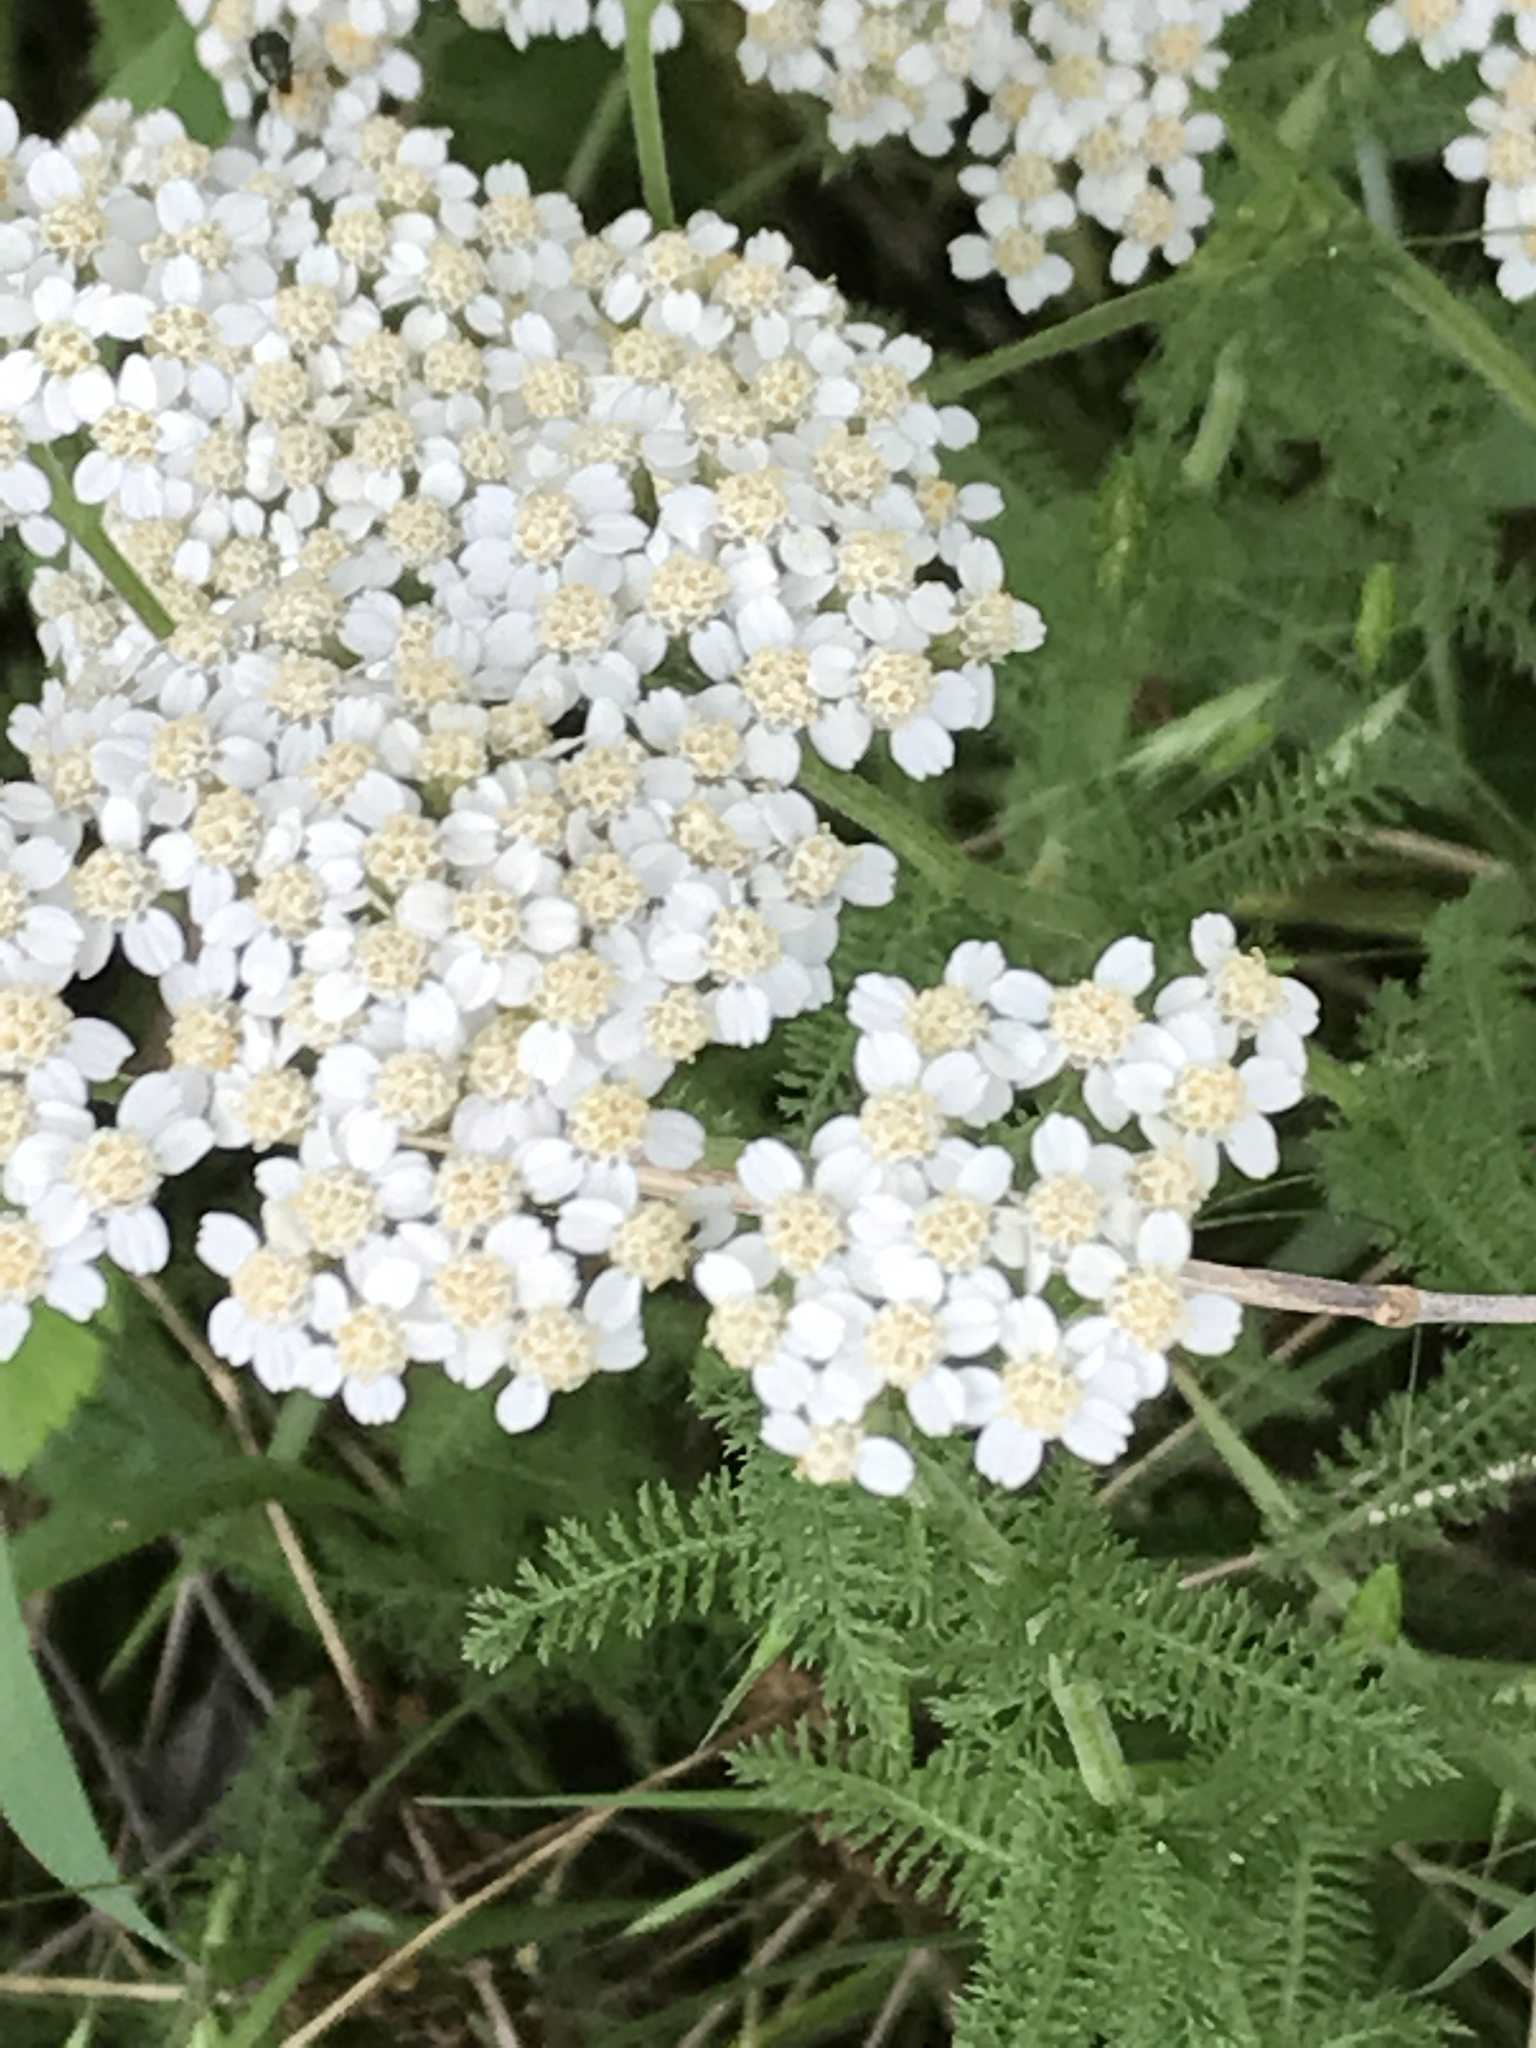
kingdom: Plantae
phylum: Tracheophyta
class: Magnoliopsida
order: Asterales
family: Asteraceae
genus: Achillea
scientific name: Achillea millefolium
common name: Yarrow
